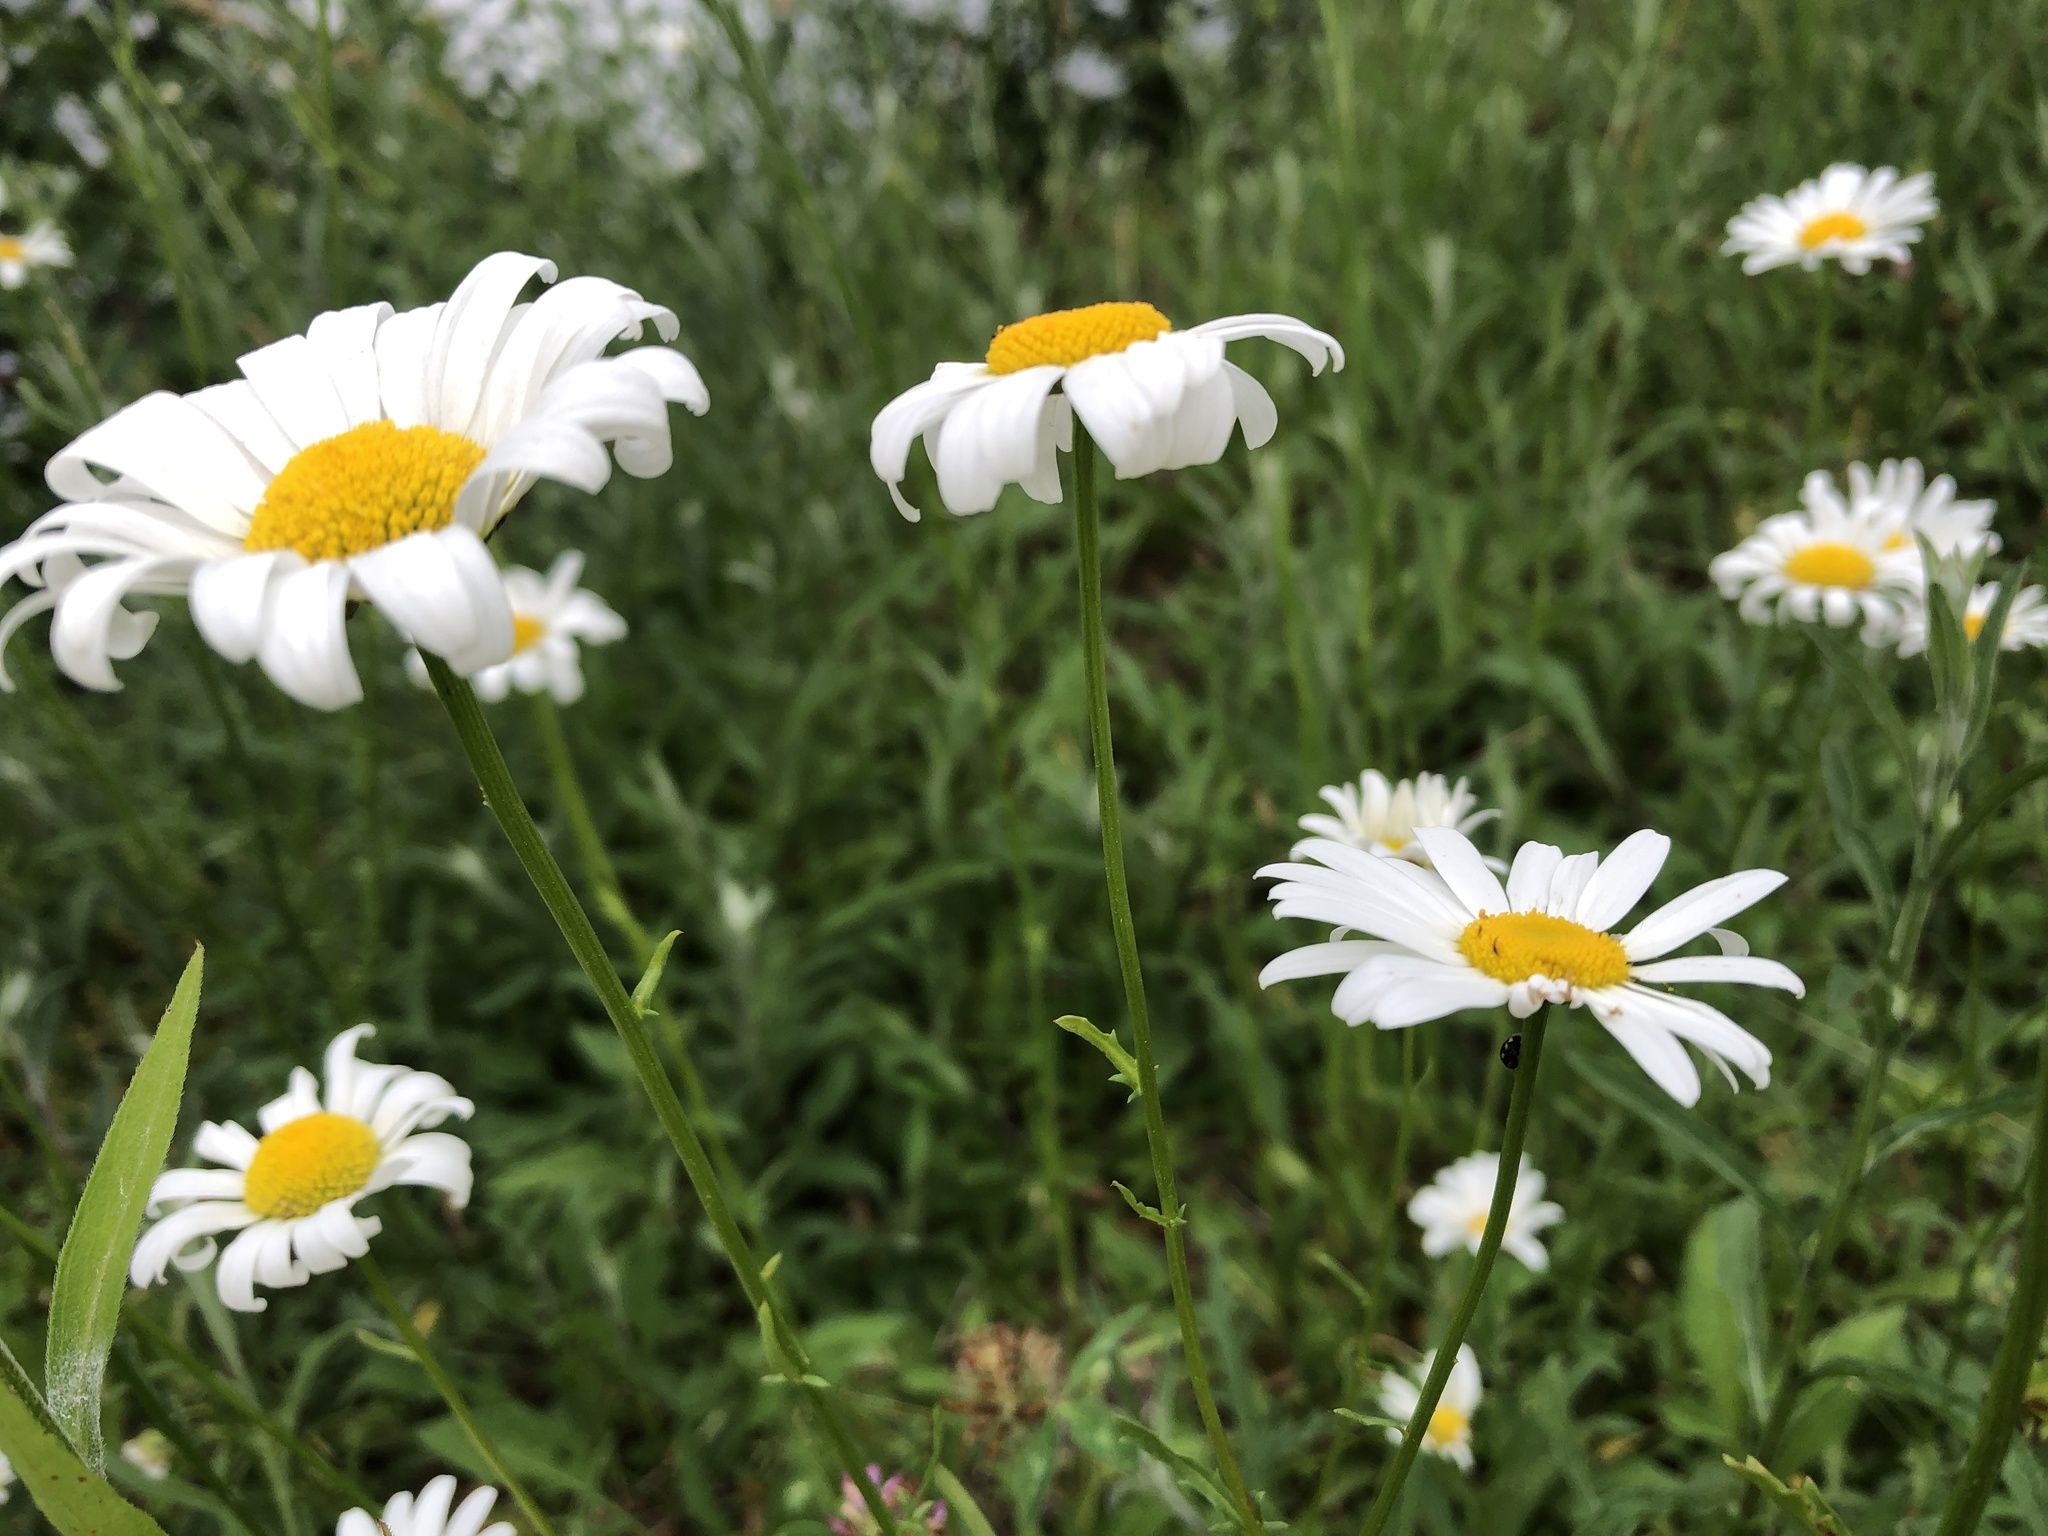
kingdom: Plantae
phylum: Tracheophyta
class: Magnoliopsida
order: Asterales
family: Asteraceae
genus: Leucanthemum
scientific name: Leucanthemum vulgare
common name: Oxeye daisy
